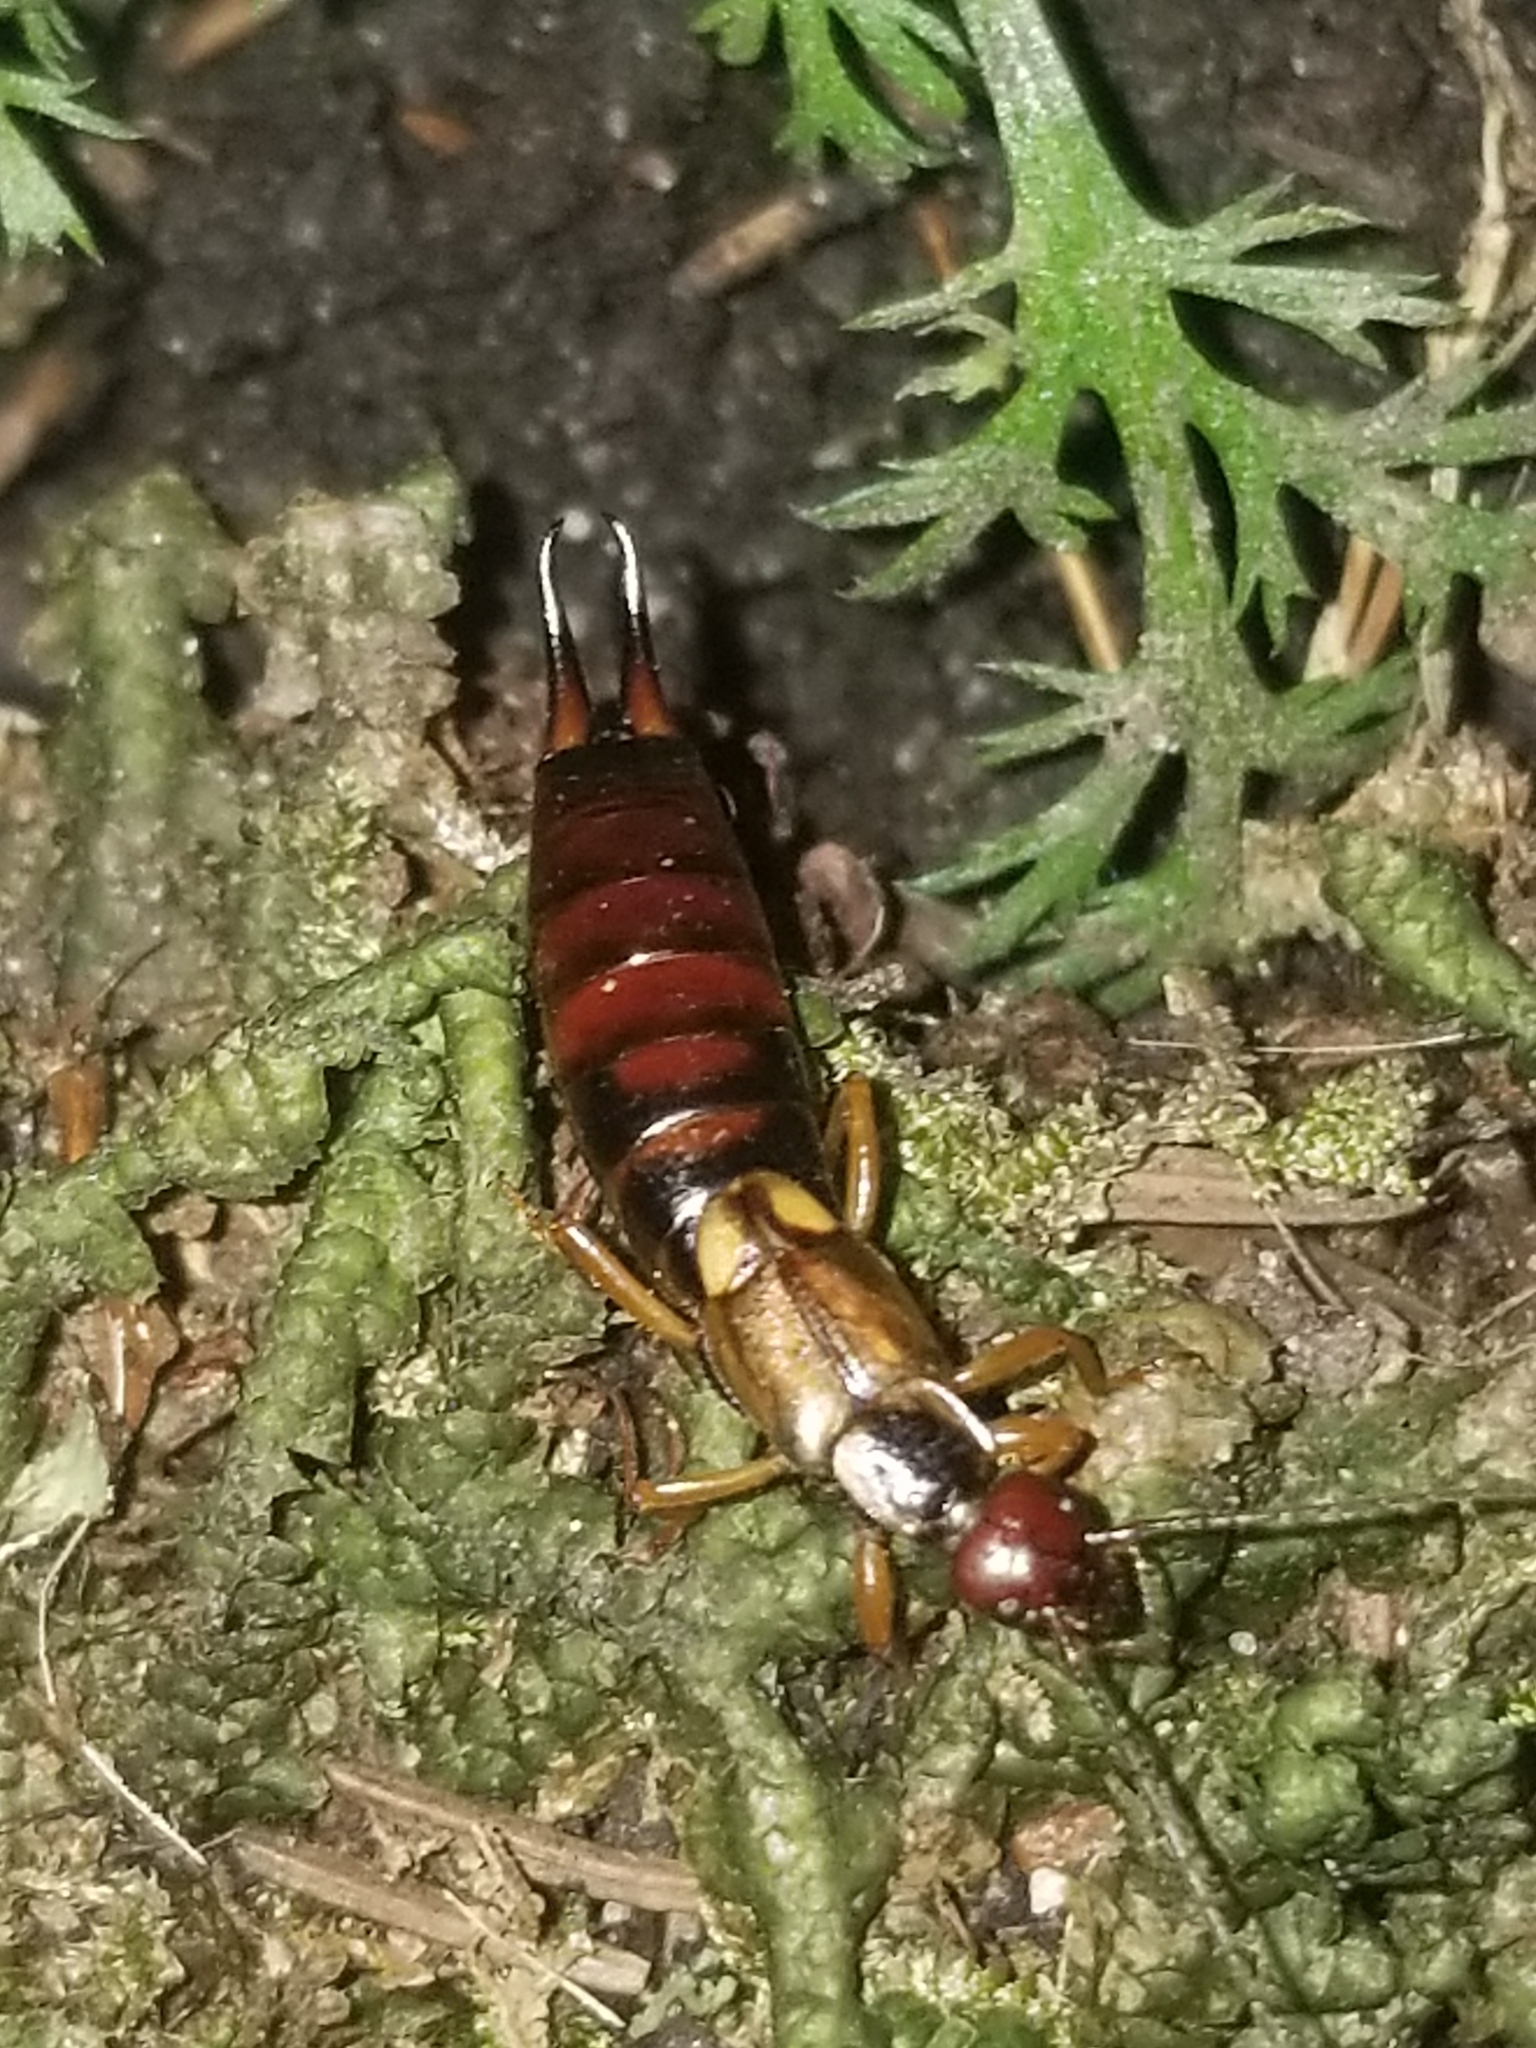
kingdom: Animalia
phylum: Arthropoda
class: Insecta
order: Dermaptera
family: Forficulidae
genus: Forficula
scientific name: Forficula
